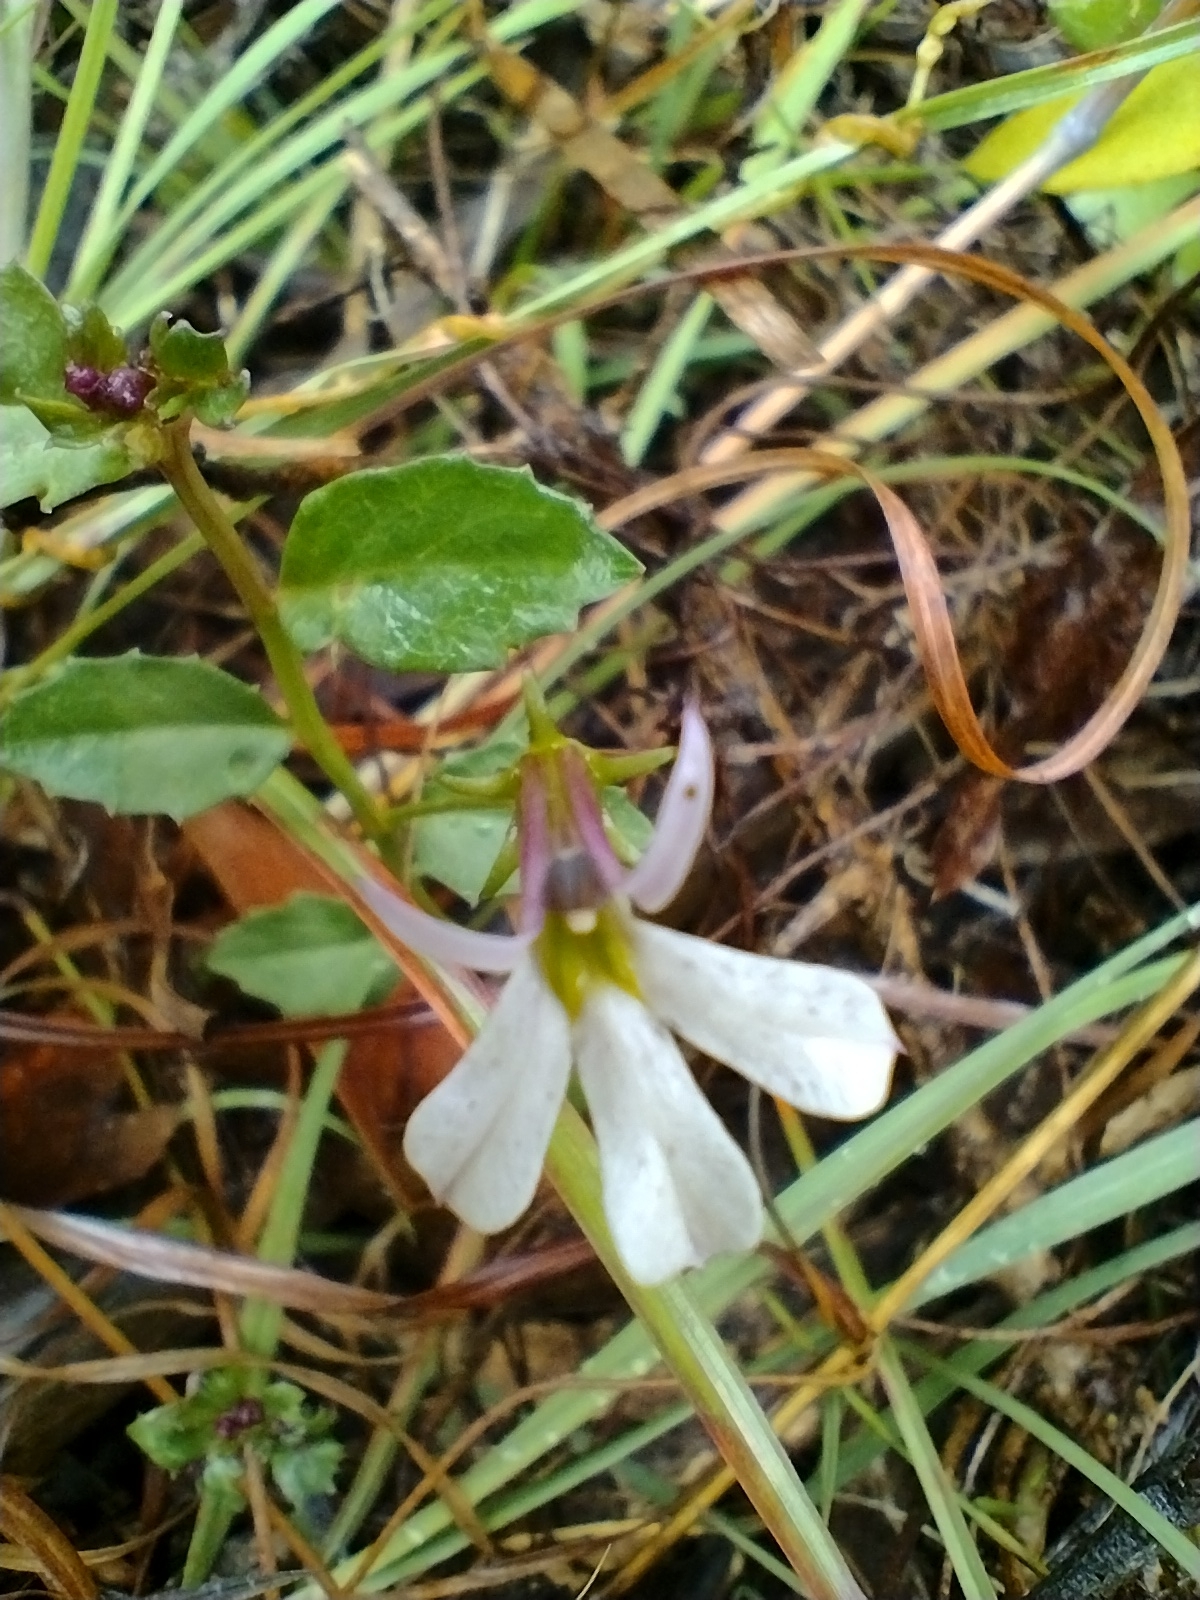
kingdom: Plantae
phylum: Tracheophyta
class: Magnoliopsida
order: Asterales
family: Campanulaceae
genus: Lobelia
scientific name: Lobelia purpurascens
